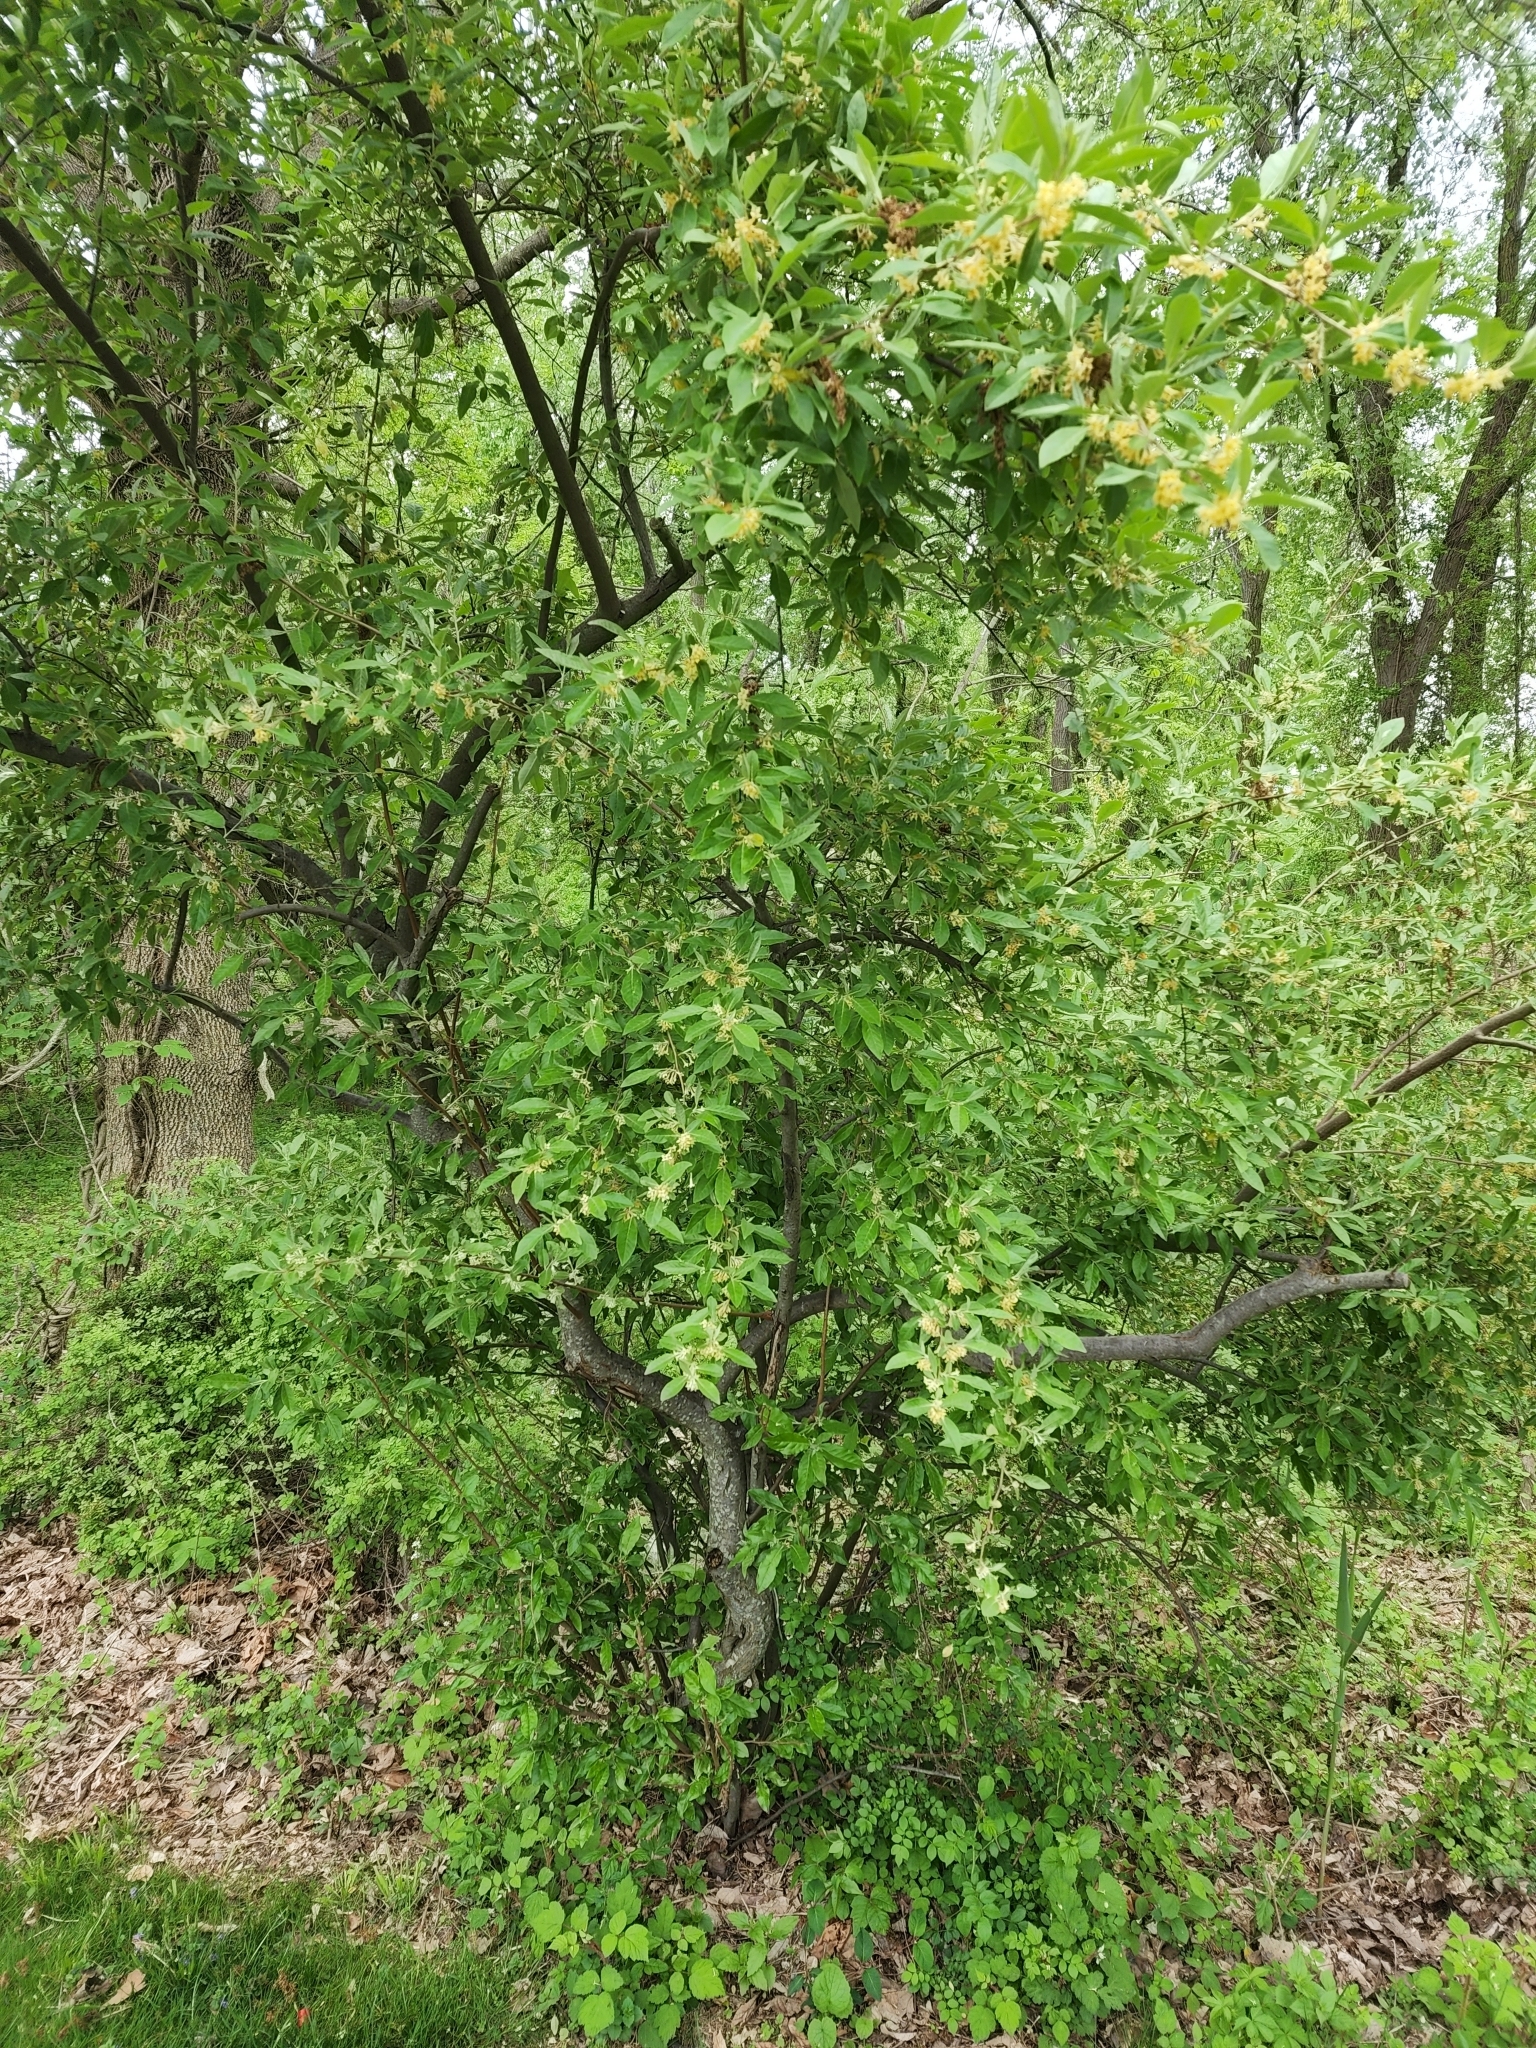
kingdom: Plantae
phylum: Tracheophyta
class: Magnoliopsida
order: Rosales
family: Elaeagnaceae
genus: Elaeagnus
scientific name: Elaeagnus umbellata
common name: Autumn olive
